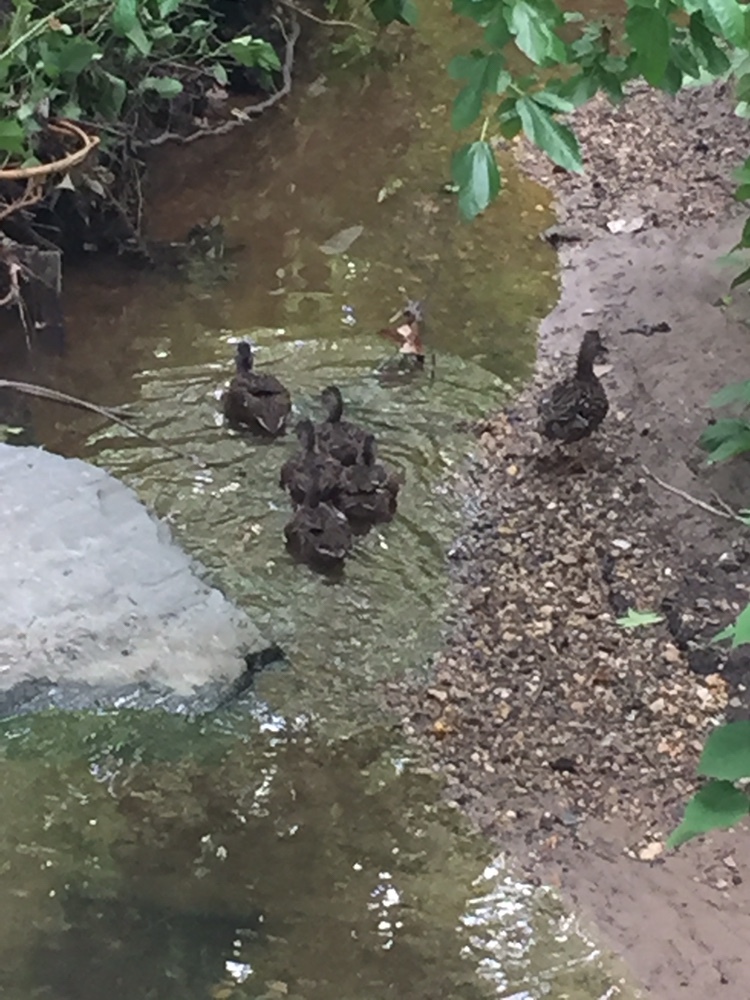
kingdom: Animalia
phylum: Chordata
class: Aves
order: Anseriformes
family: Anatidae
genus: Anas
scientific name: Anas platyrhynchos
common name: Mallard
